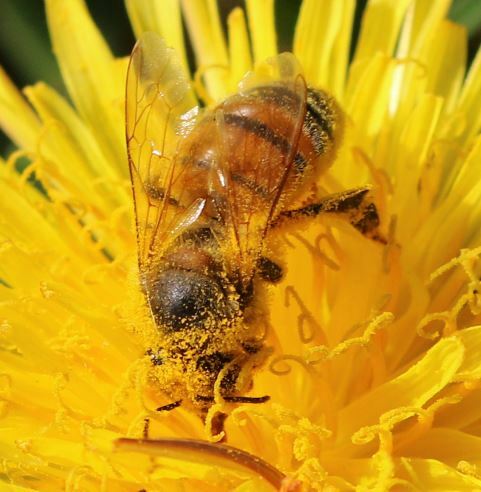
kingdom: Animalia
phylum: Arthropoda
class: Insecta
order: Hymenoptera
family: Apidae
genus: Apis
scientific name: Apis mellifera
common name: Honey bee
